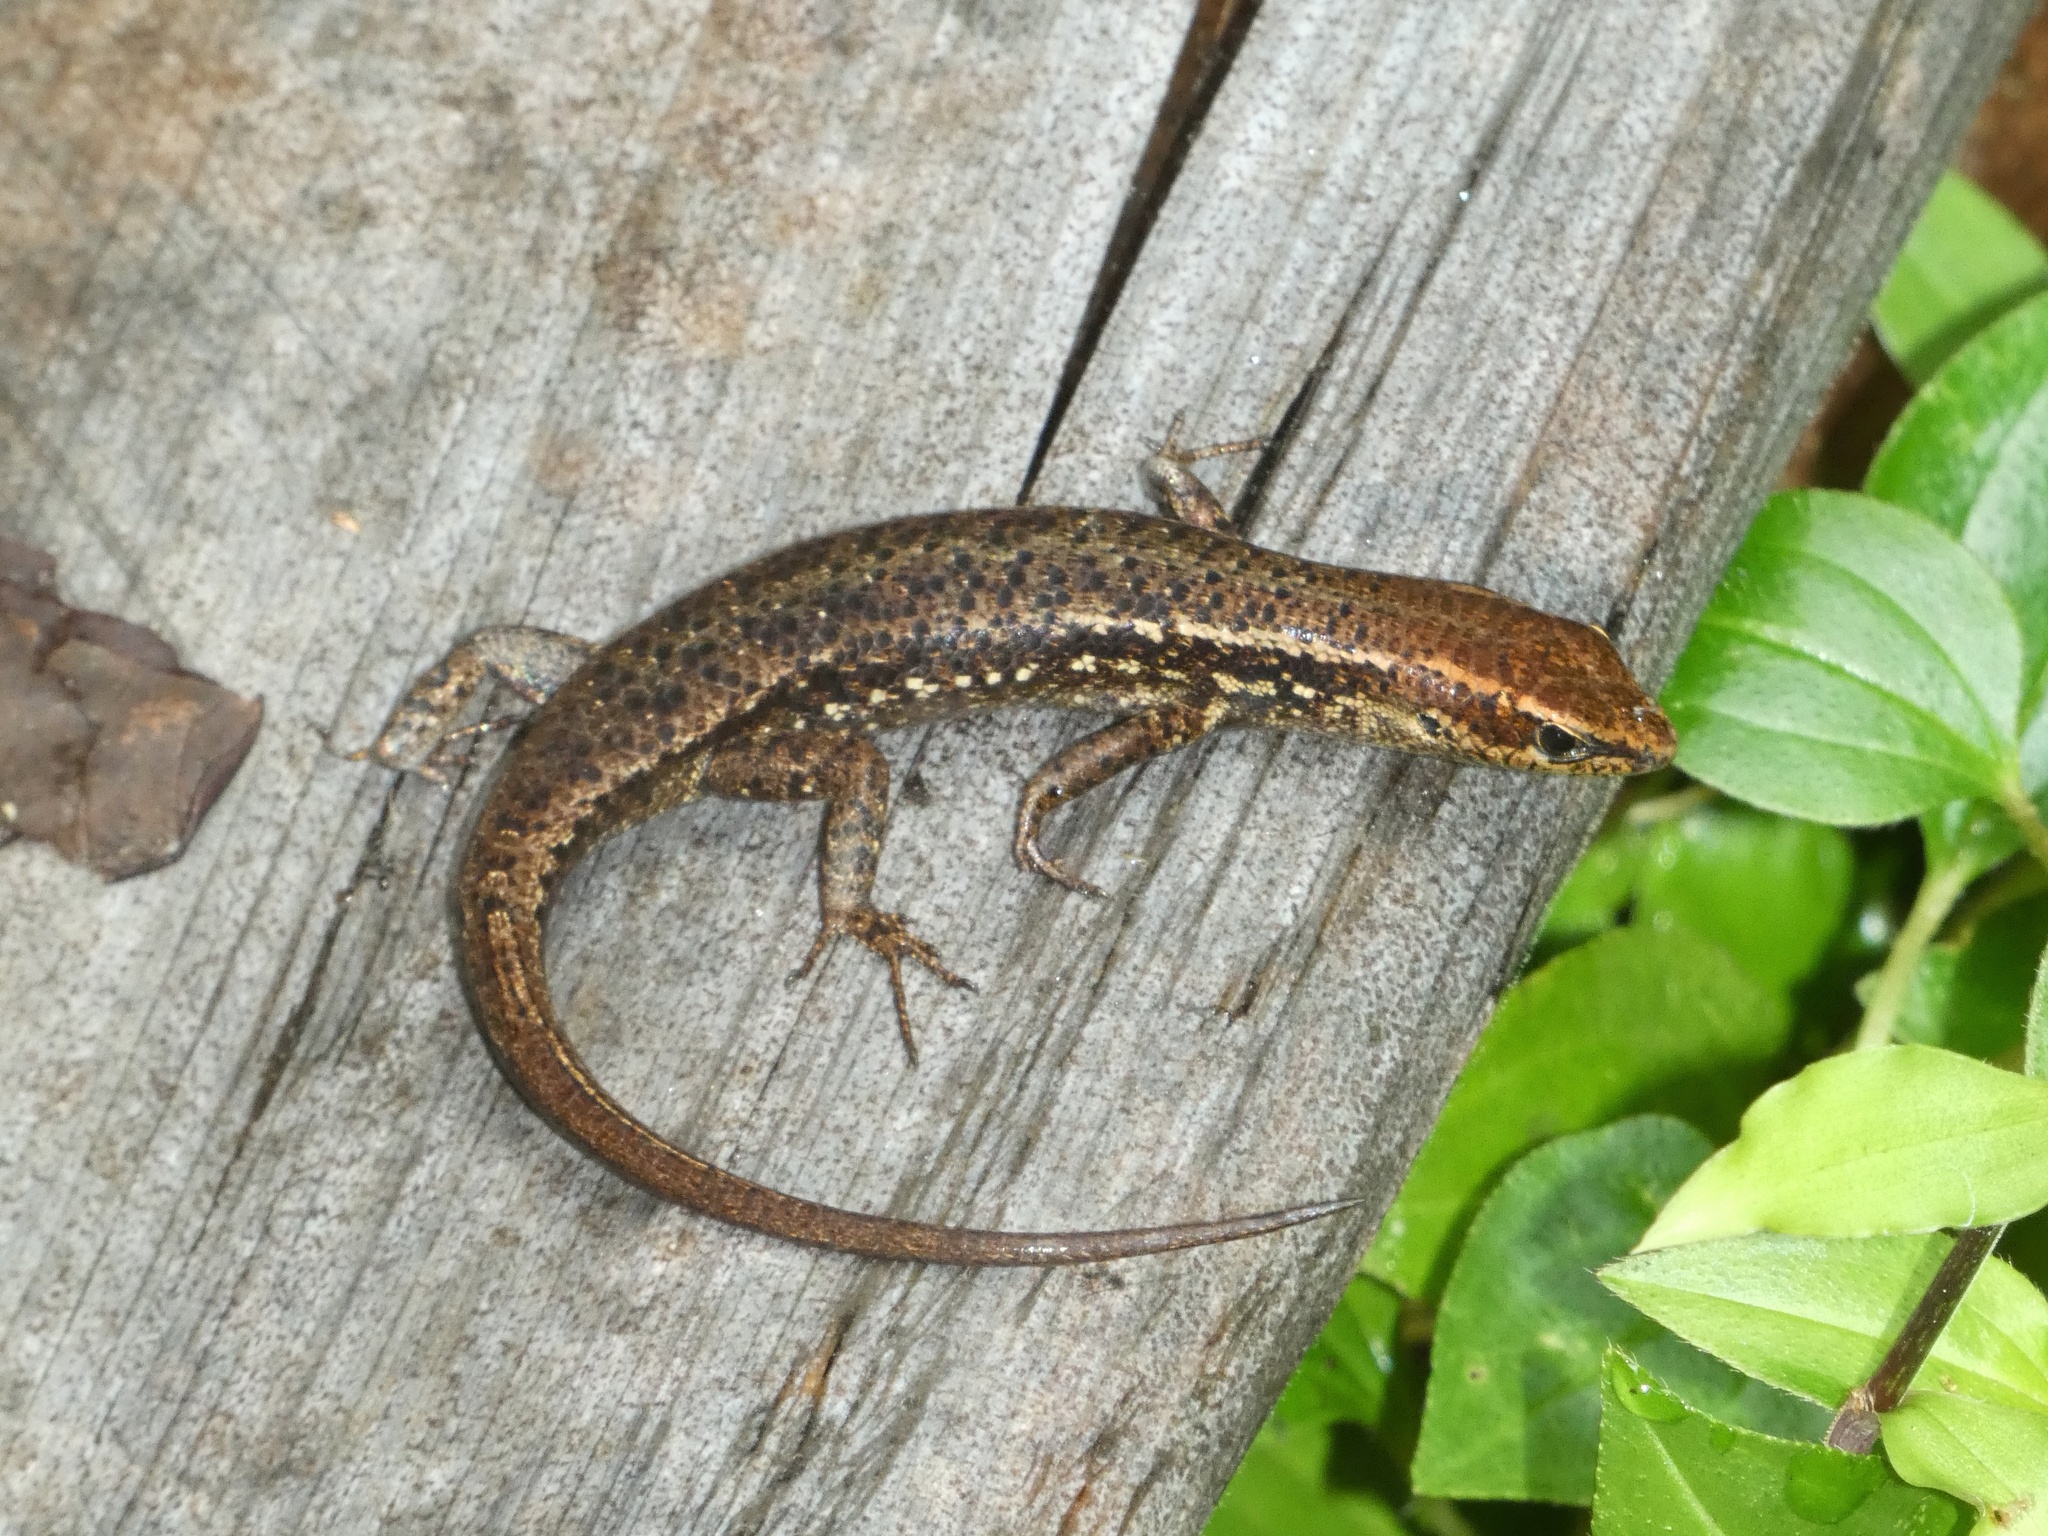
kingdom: Animalia
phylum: Chordata
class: Squamata
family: Scincidae
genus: Carlia
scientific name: Carlia crypta
